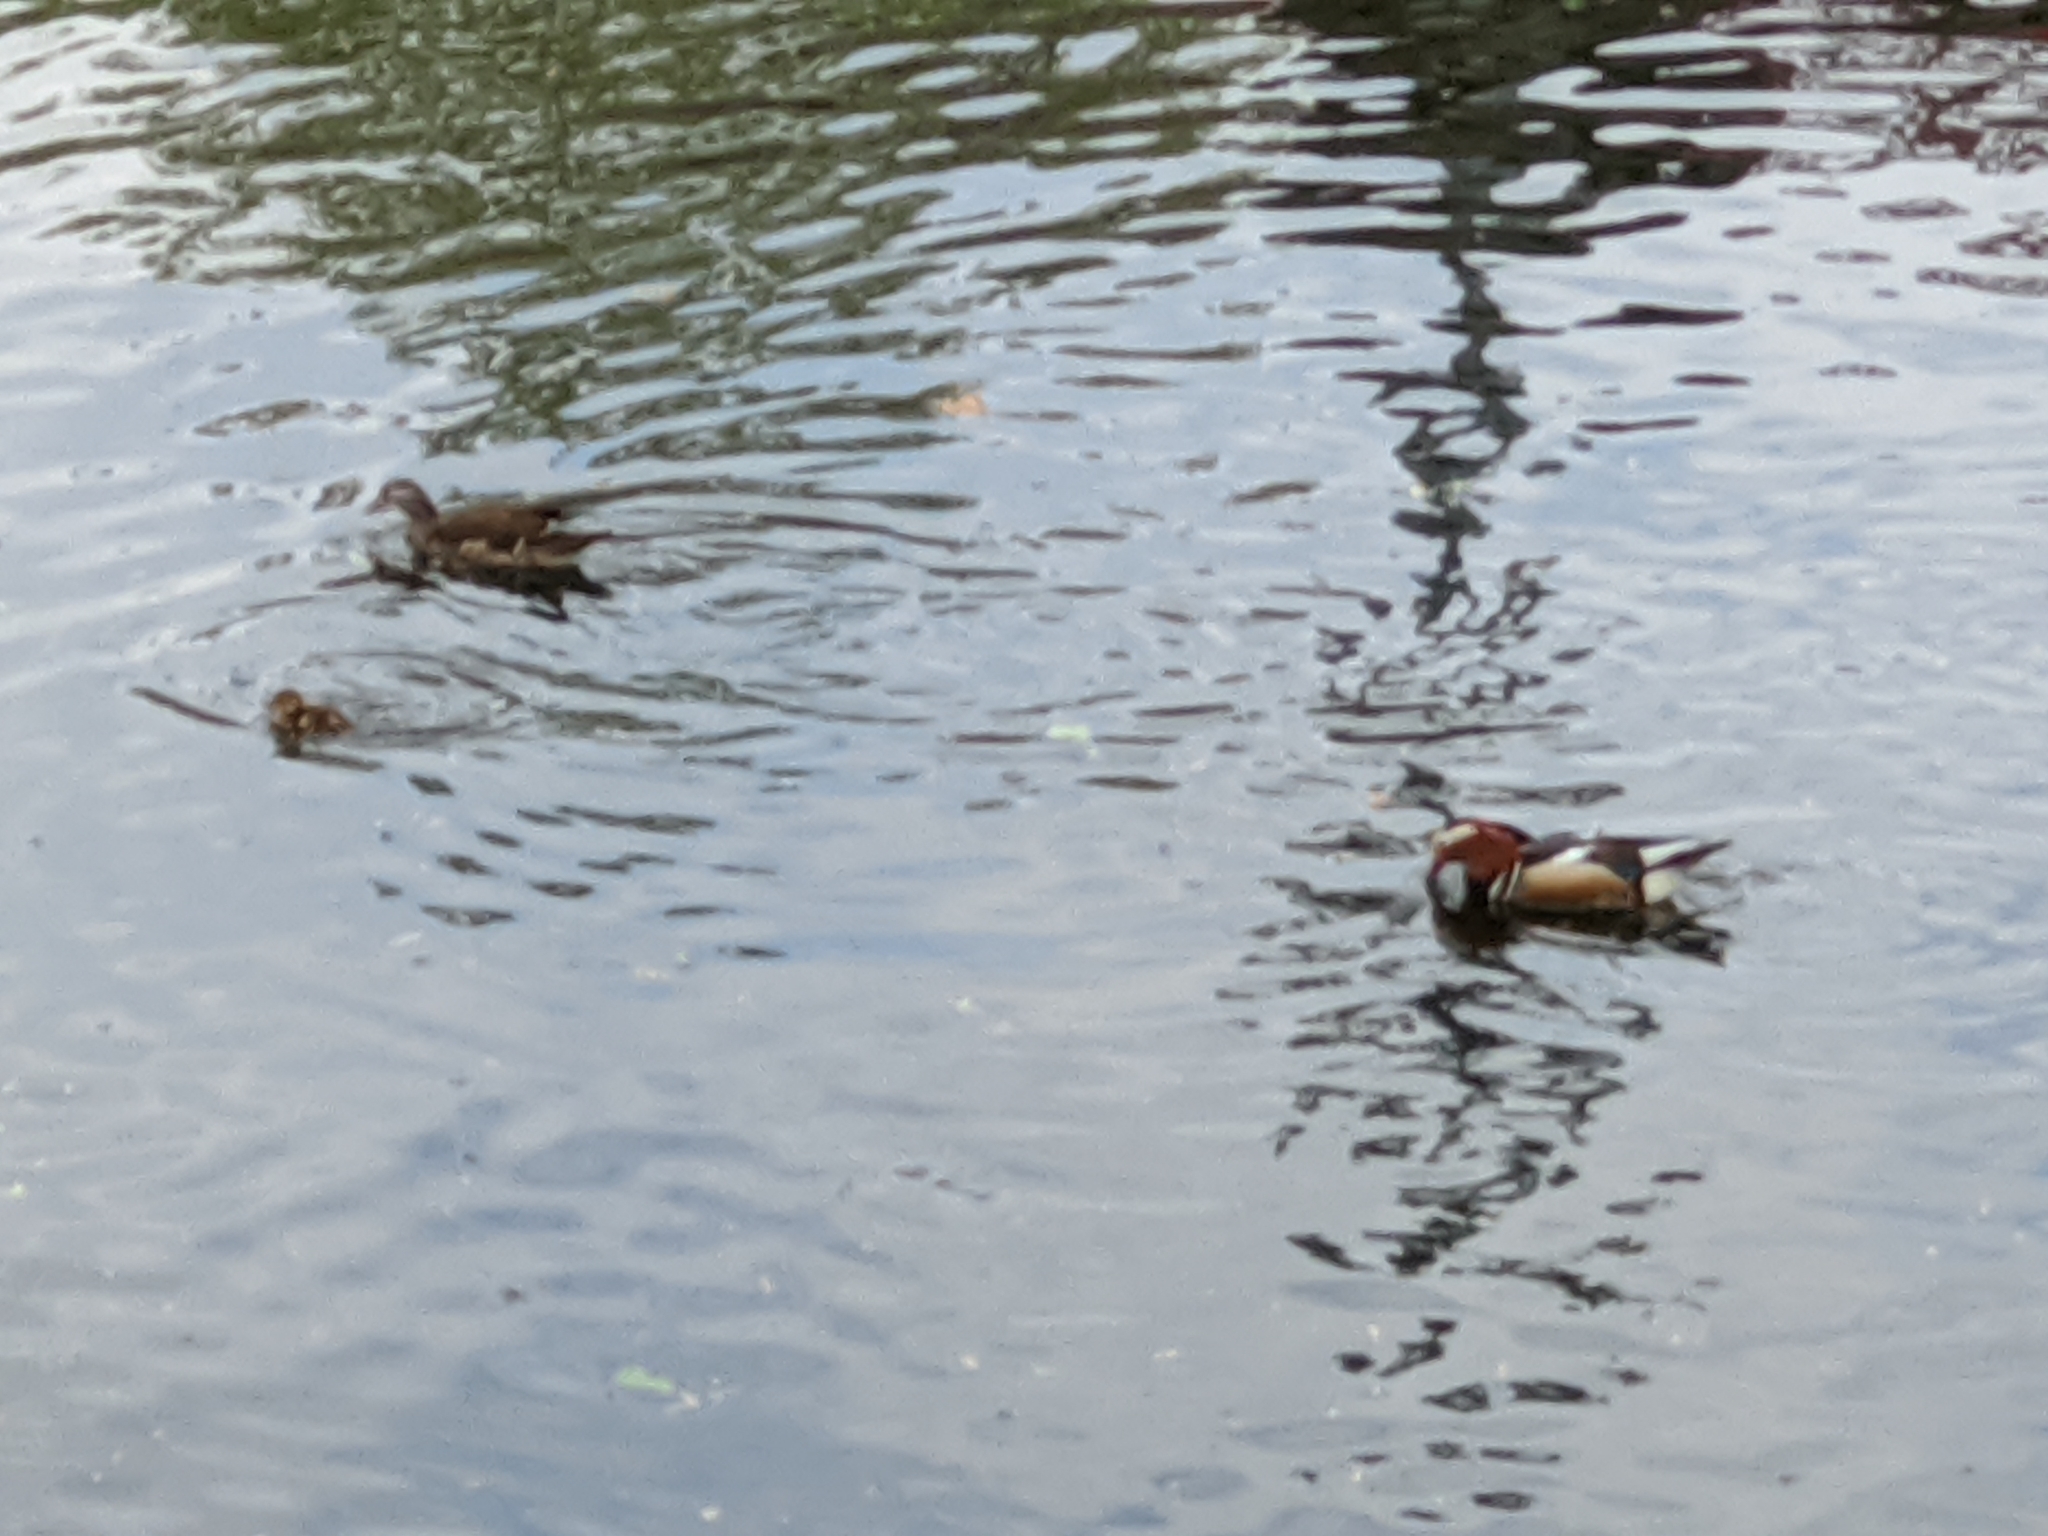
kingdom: Animalia
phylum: Chordata
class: Aves
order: Anseriformes
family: Anatidae
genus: Aix
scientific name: Aix galericulata
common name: Mandarin duck
